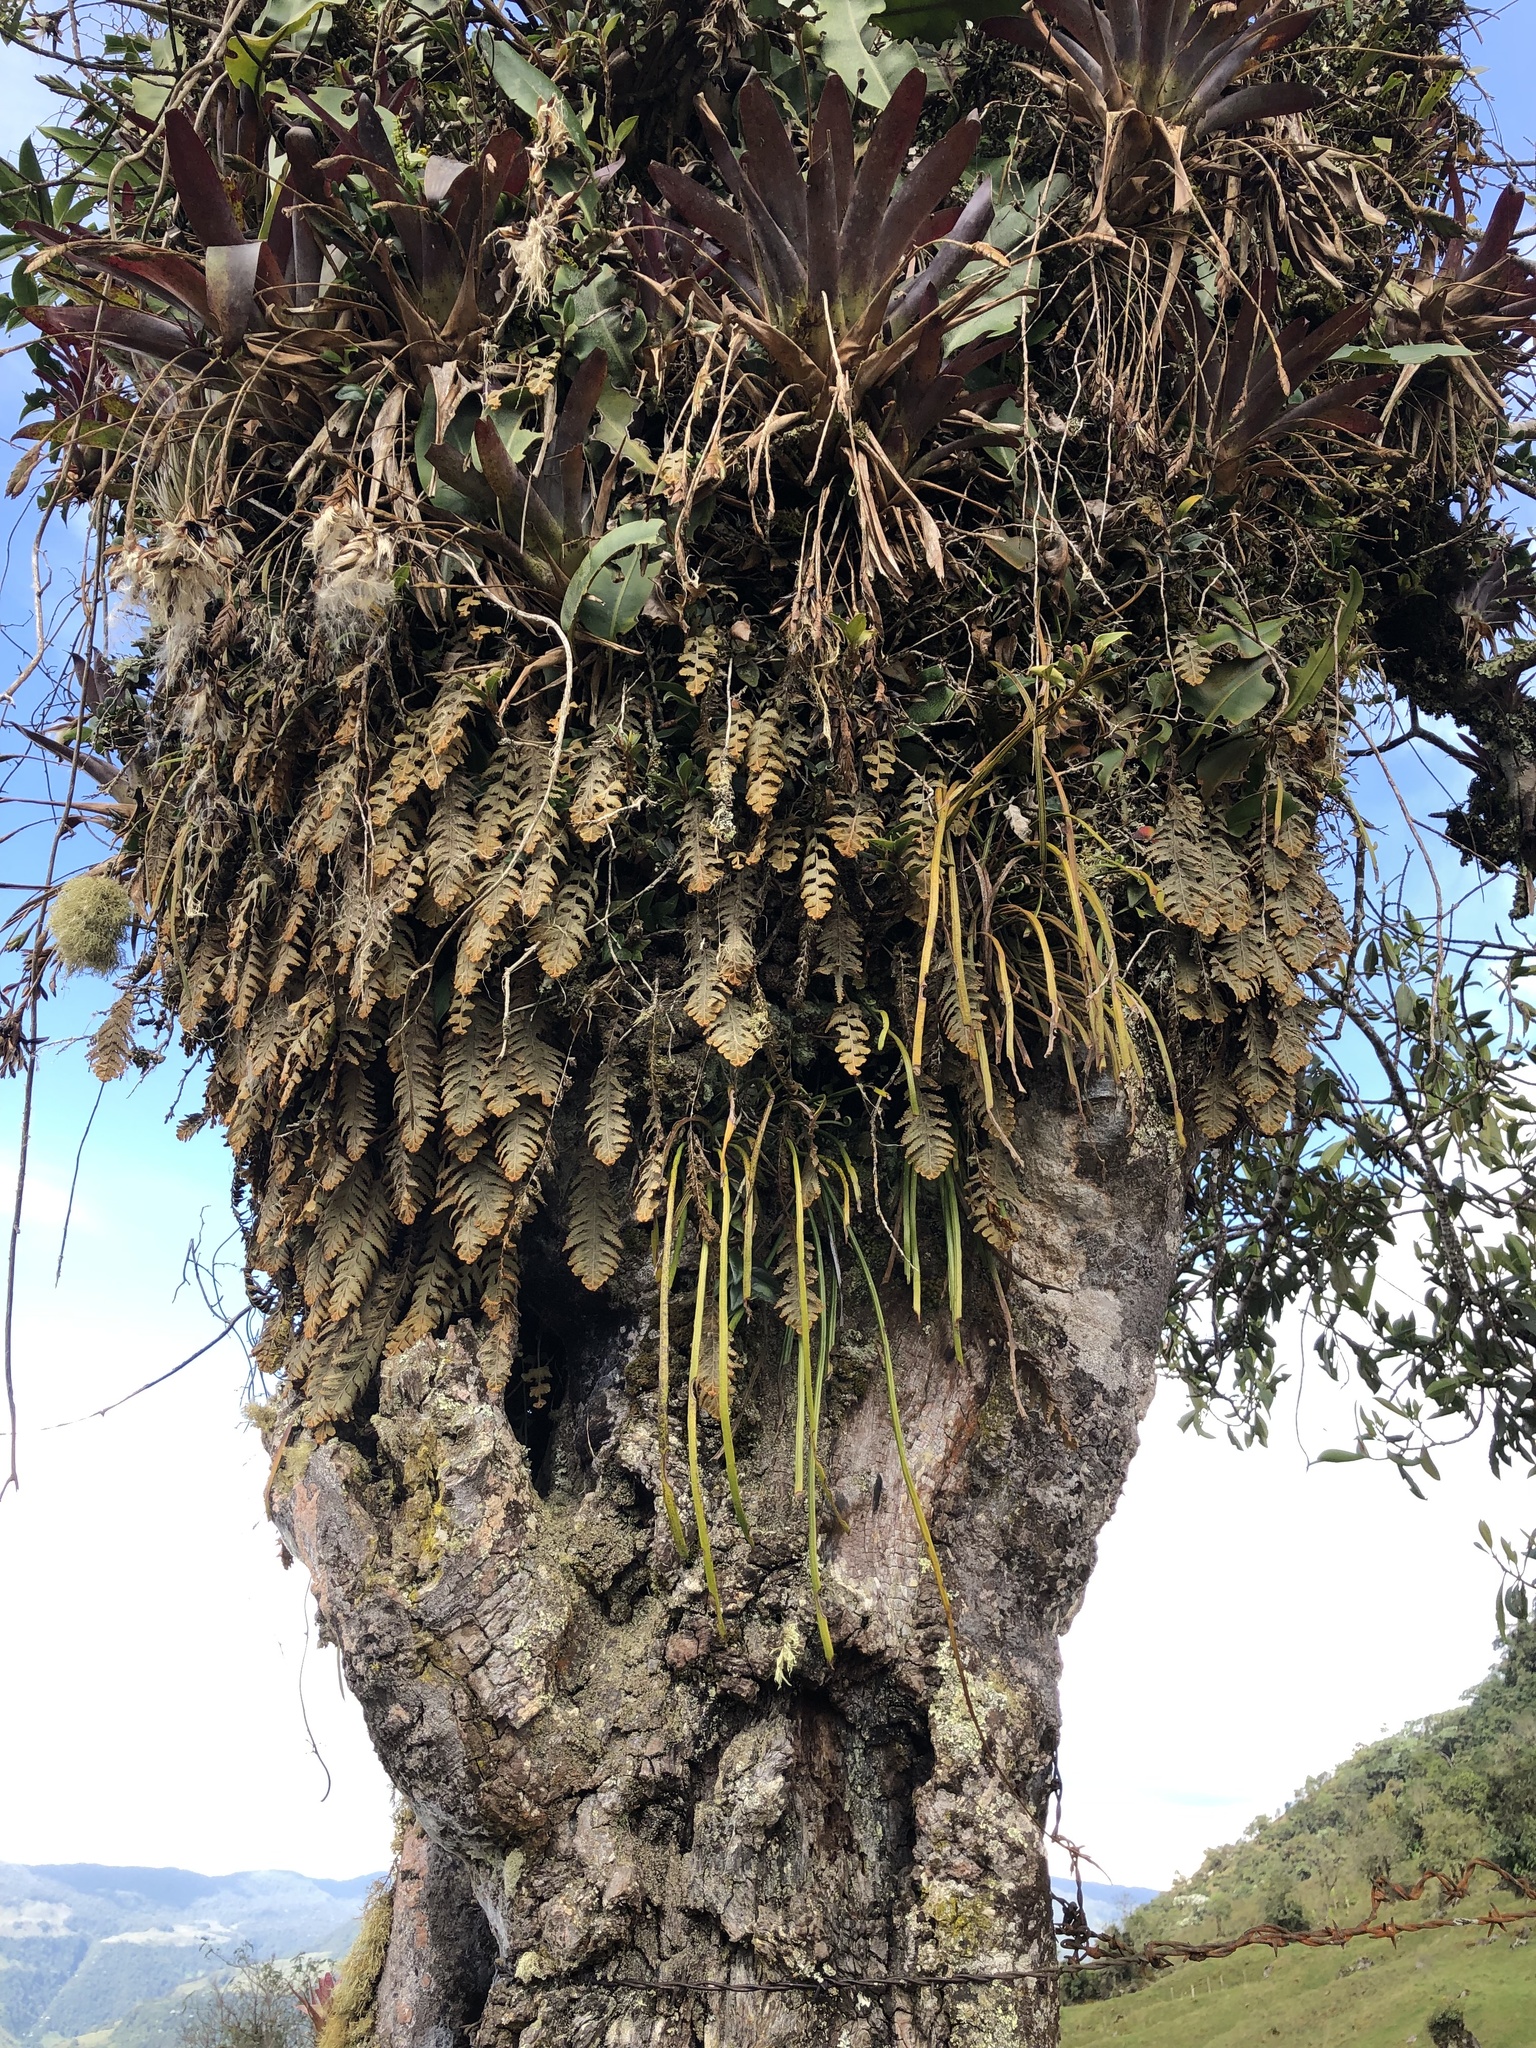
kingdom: Plantae
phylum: Tracheophyta
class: Polypodiopsida
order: Hymenophyllales
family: Hymenophyllaceae
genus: Hymenophyllum
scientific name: Hymenophyllum tomentosum
